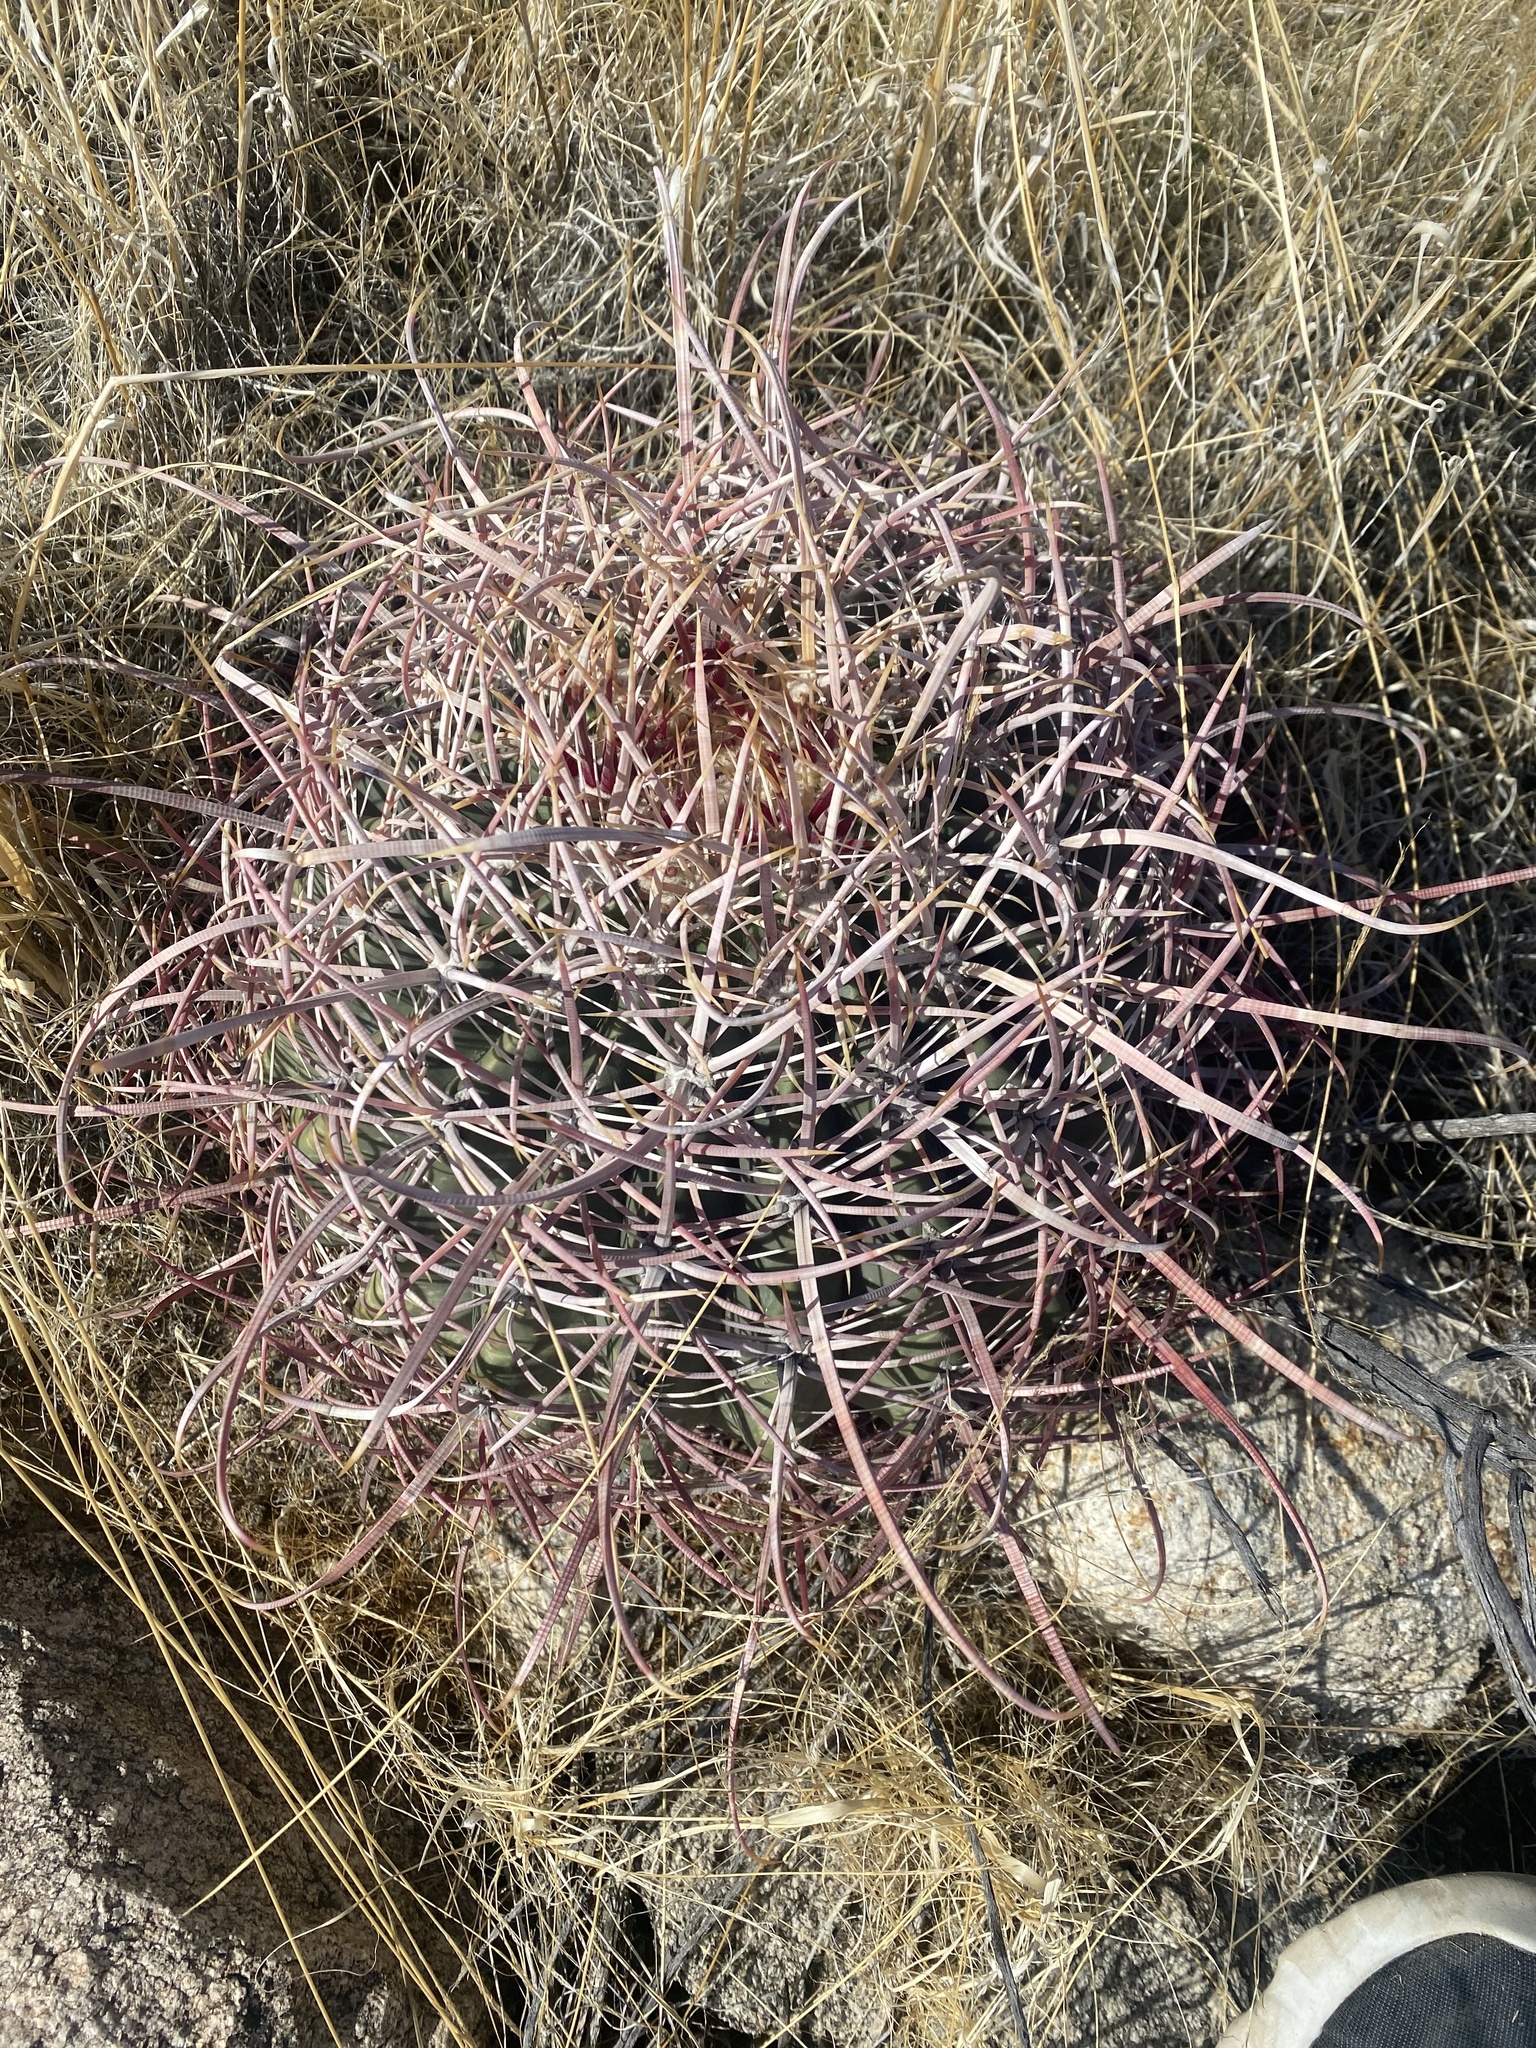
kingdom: Plantae
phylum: Tracheophyta
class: Magnoliopsida
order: Caryophyllales
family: Cactaceae
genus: Ferocactus
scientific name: Ferocactus cylindraceus
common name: California barrel cactus
